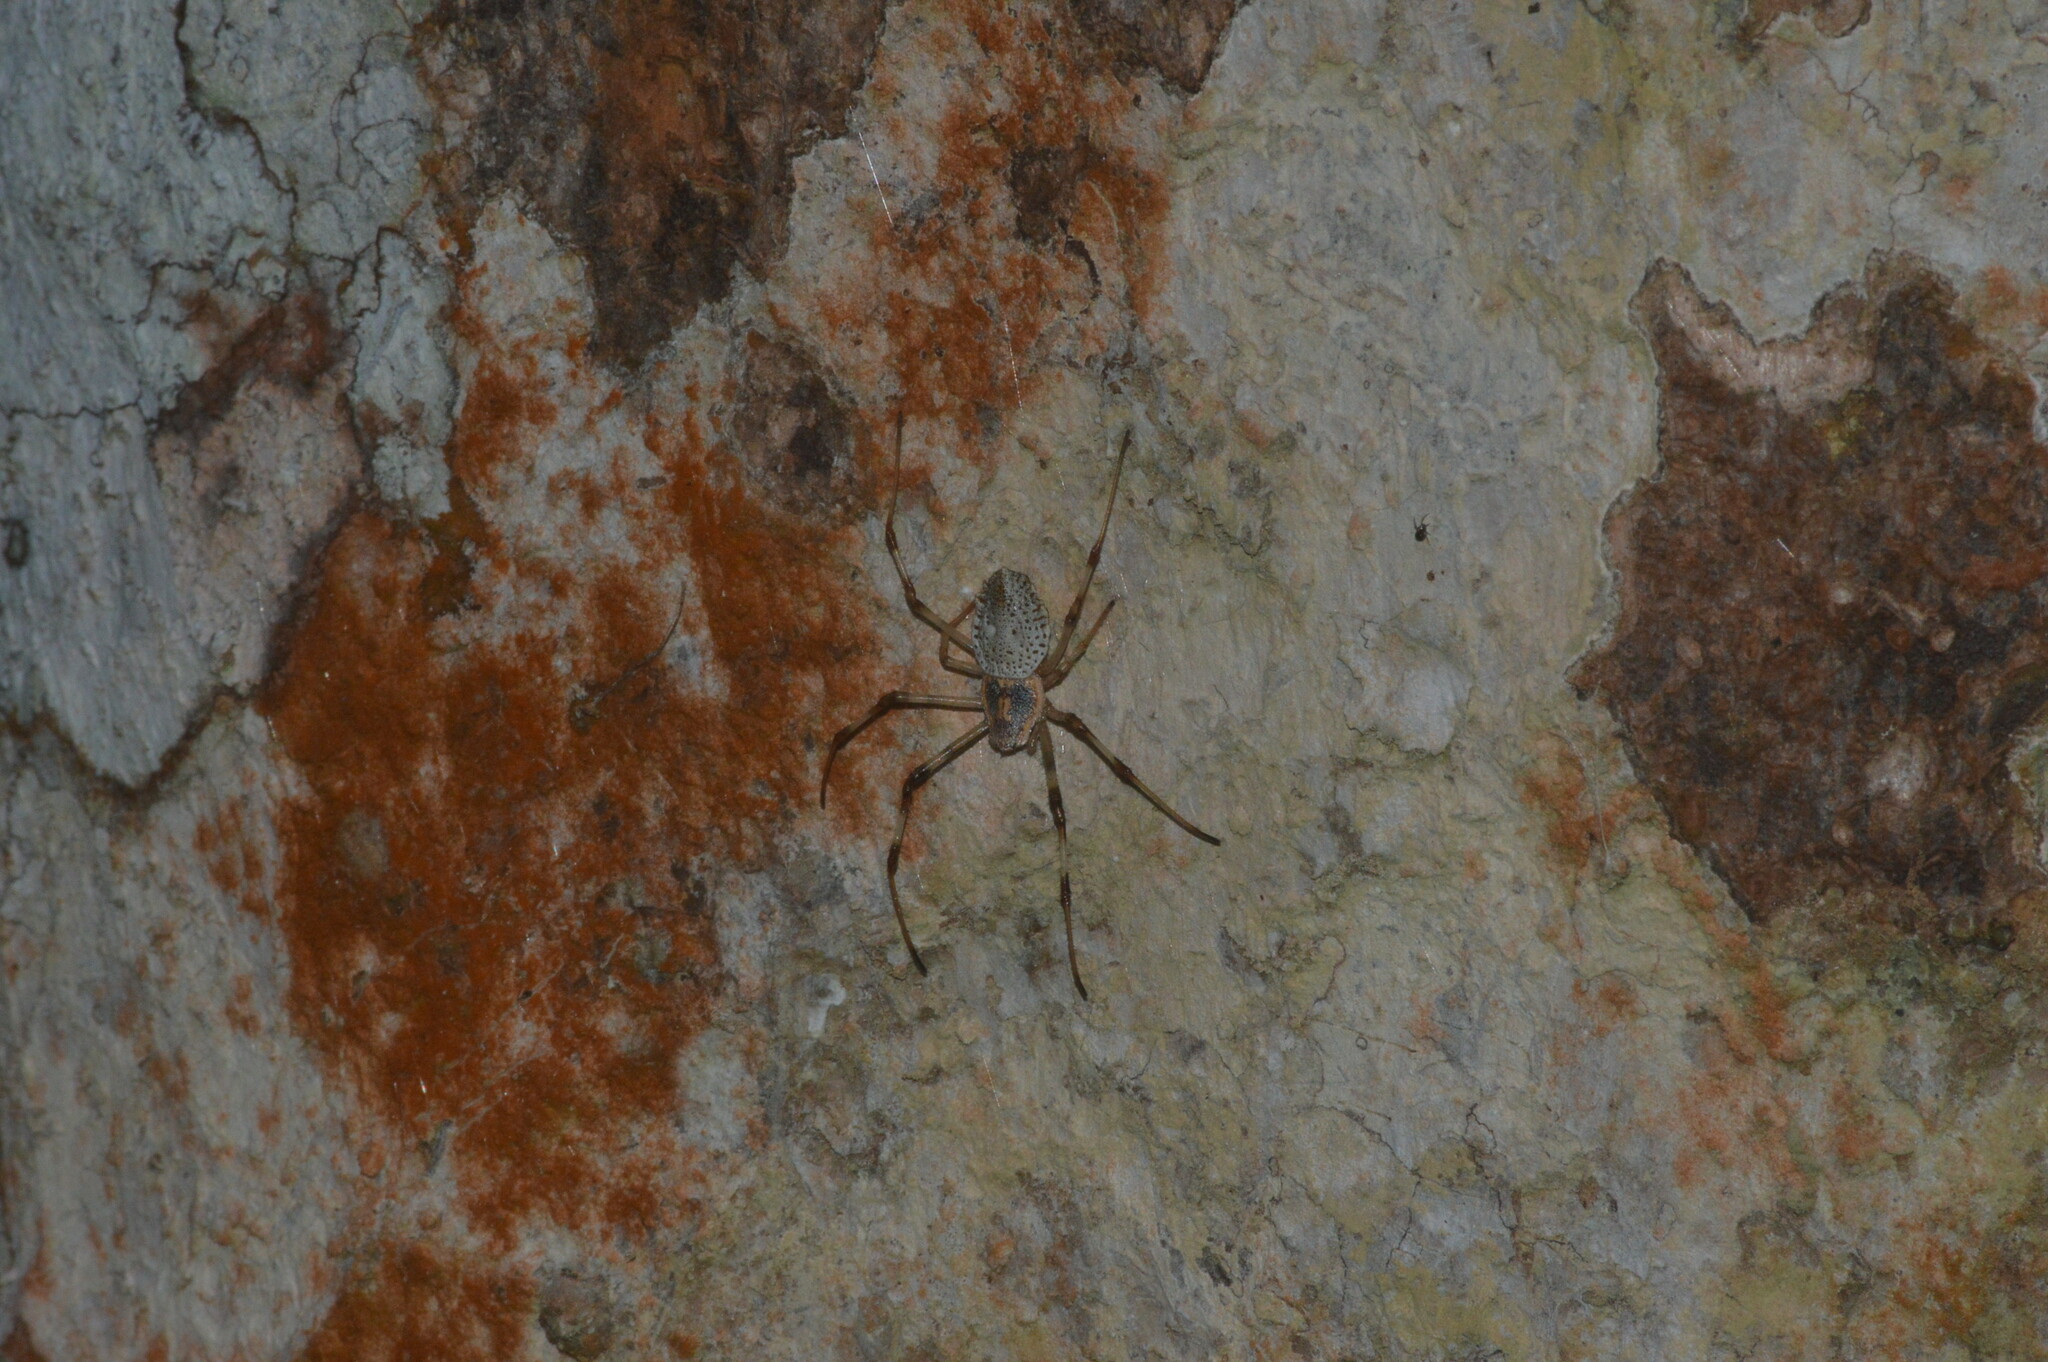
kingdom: Animalia
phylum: Arthropoda
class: Arachnida
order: Araneae
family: Araneidae
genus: Herennia
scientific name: Herennia multipuncta
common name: Spotted coin spider
